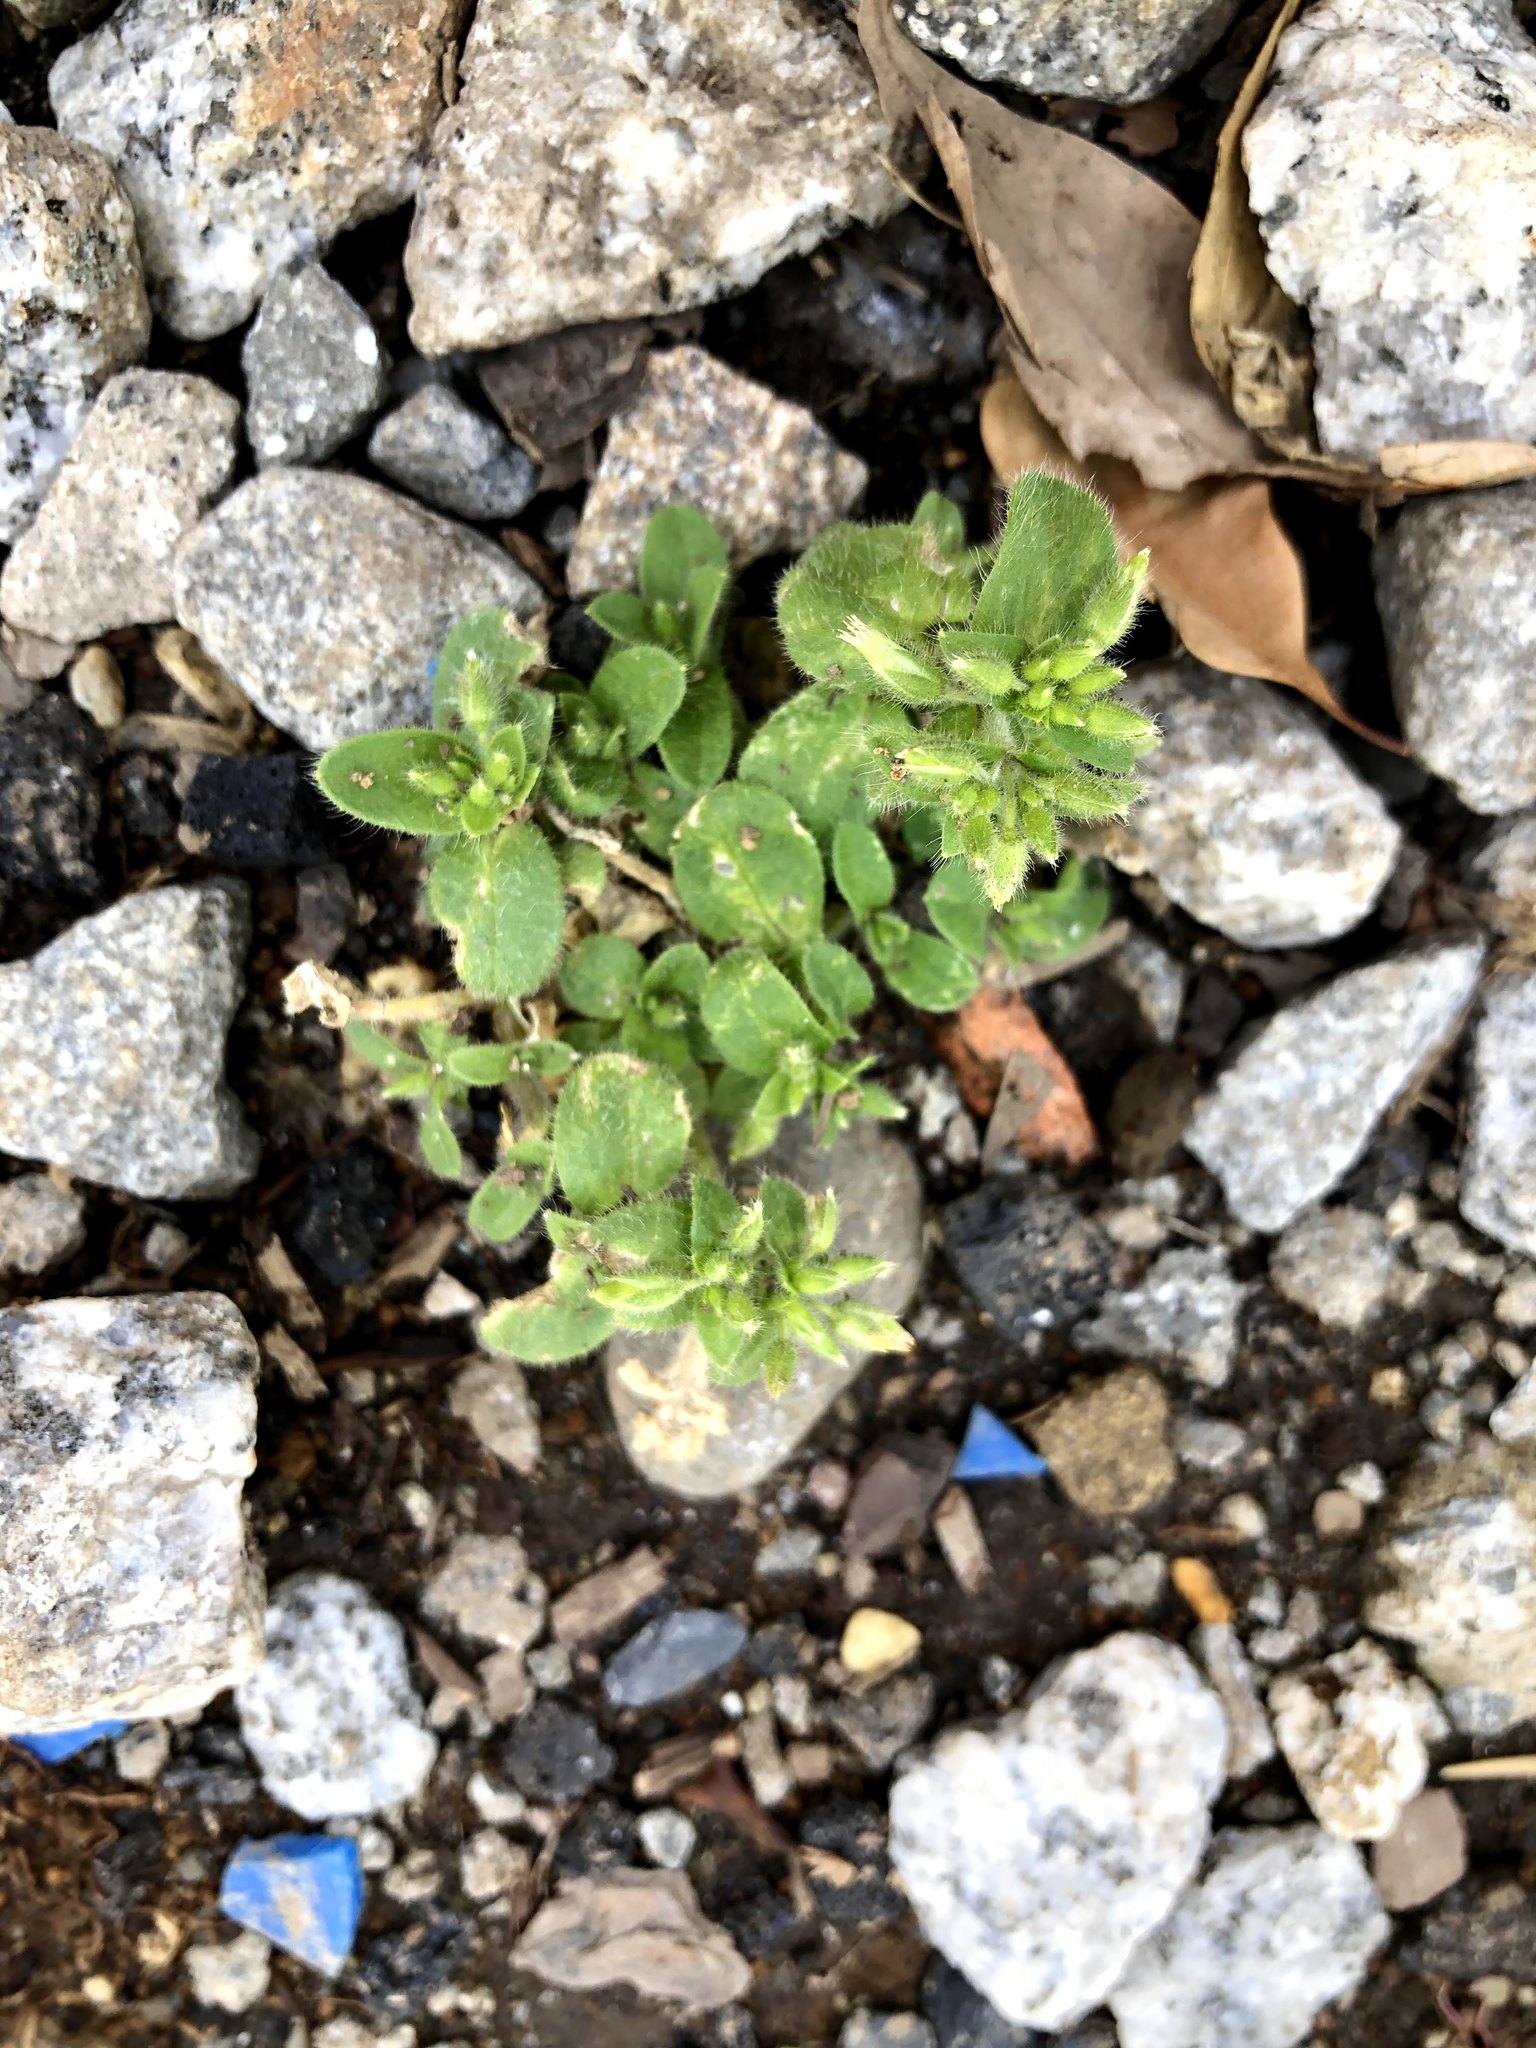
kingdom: Plantae
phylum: Tracheophyta
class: Magnoliopsida
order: Caryophyllales
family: Caryophyllaceae
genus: Cerastium
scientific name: Cerastium glomeratum
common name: Sticky chickweed
